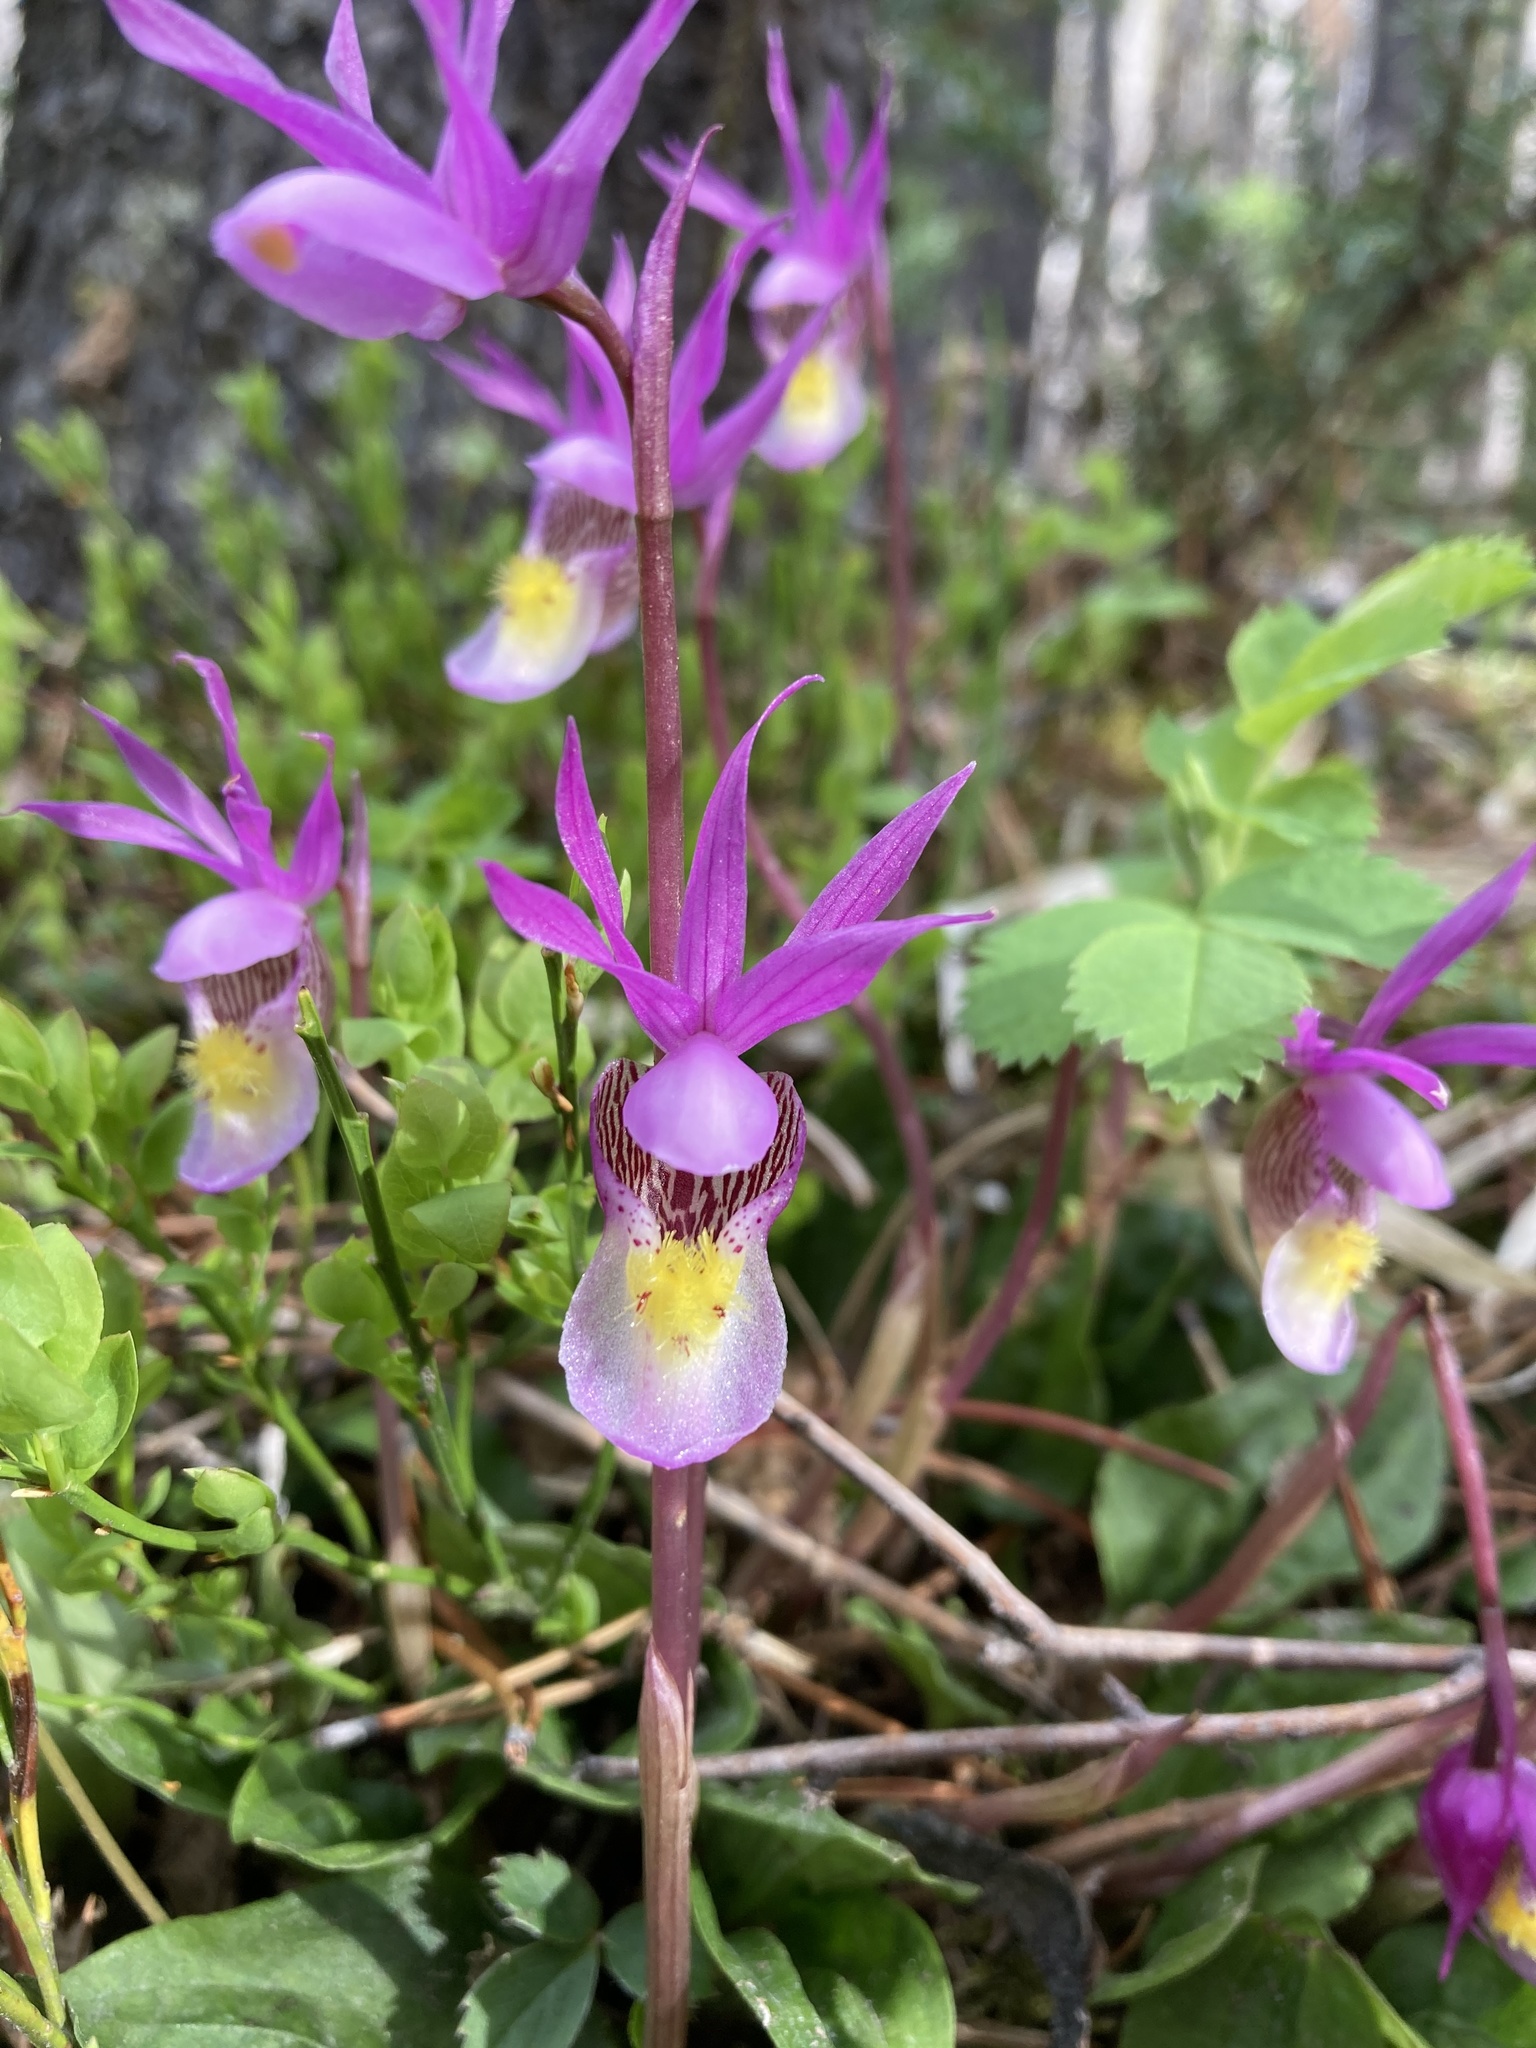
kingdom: Plantae
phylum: Tracheophyta
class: Liliopsida
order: Asparagales
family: Orchidaceae
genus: Calypso
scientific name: Calypso bulbosa
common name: Calypso
